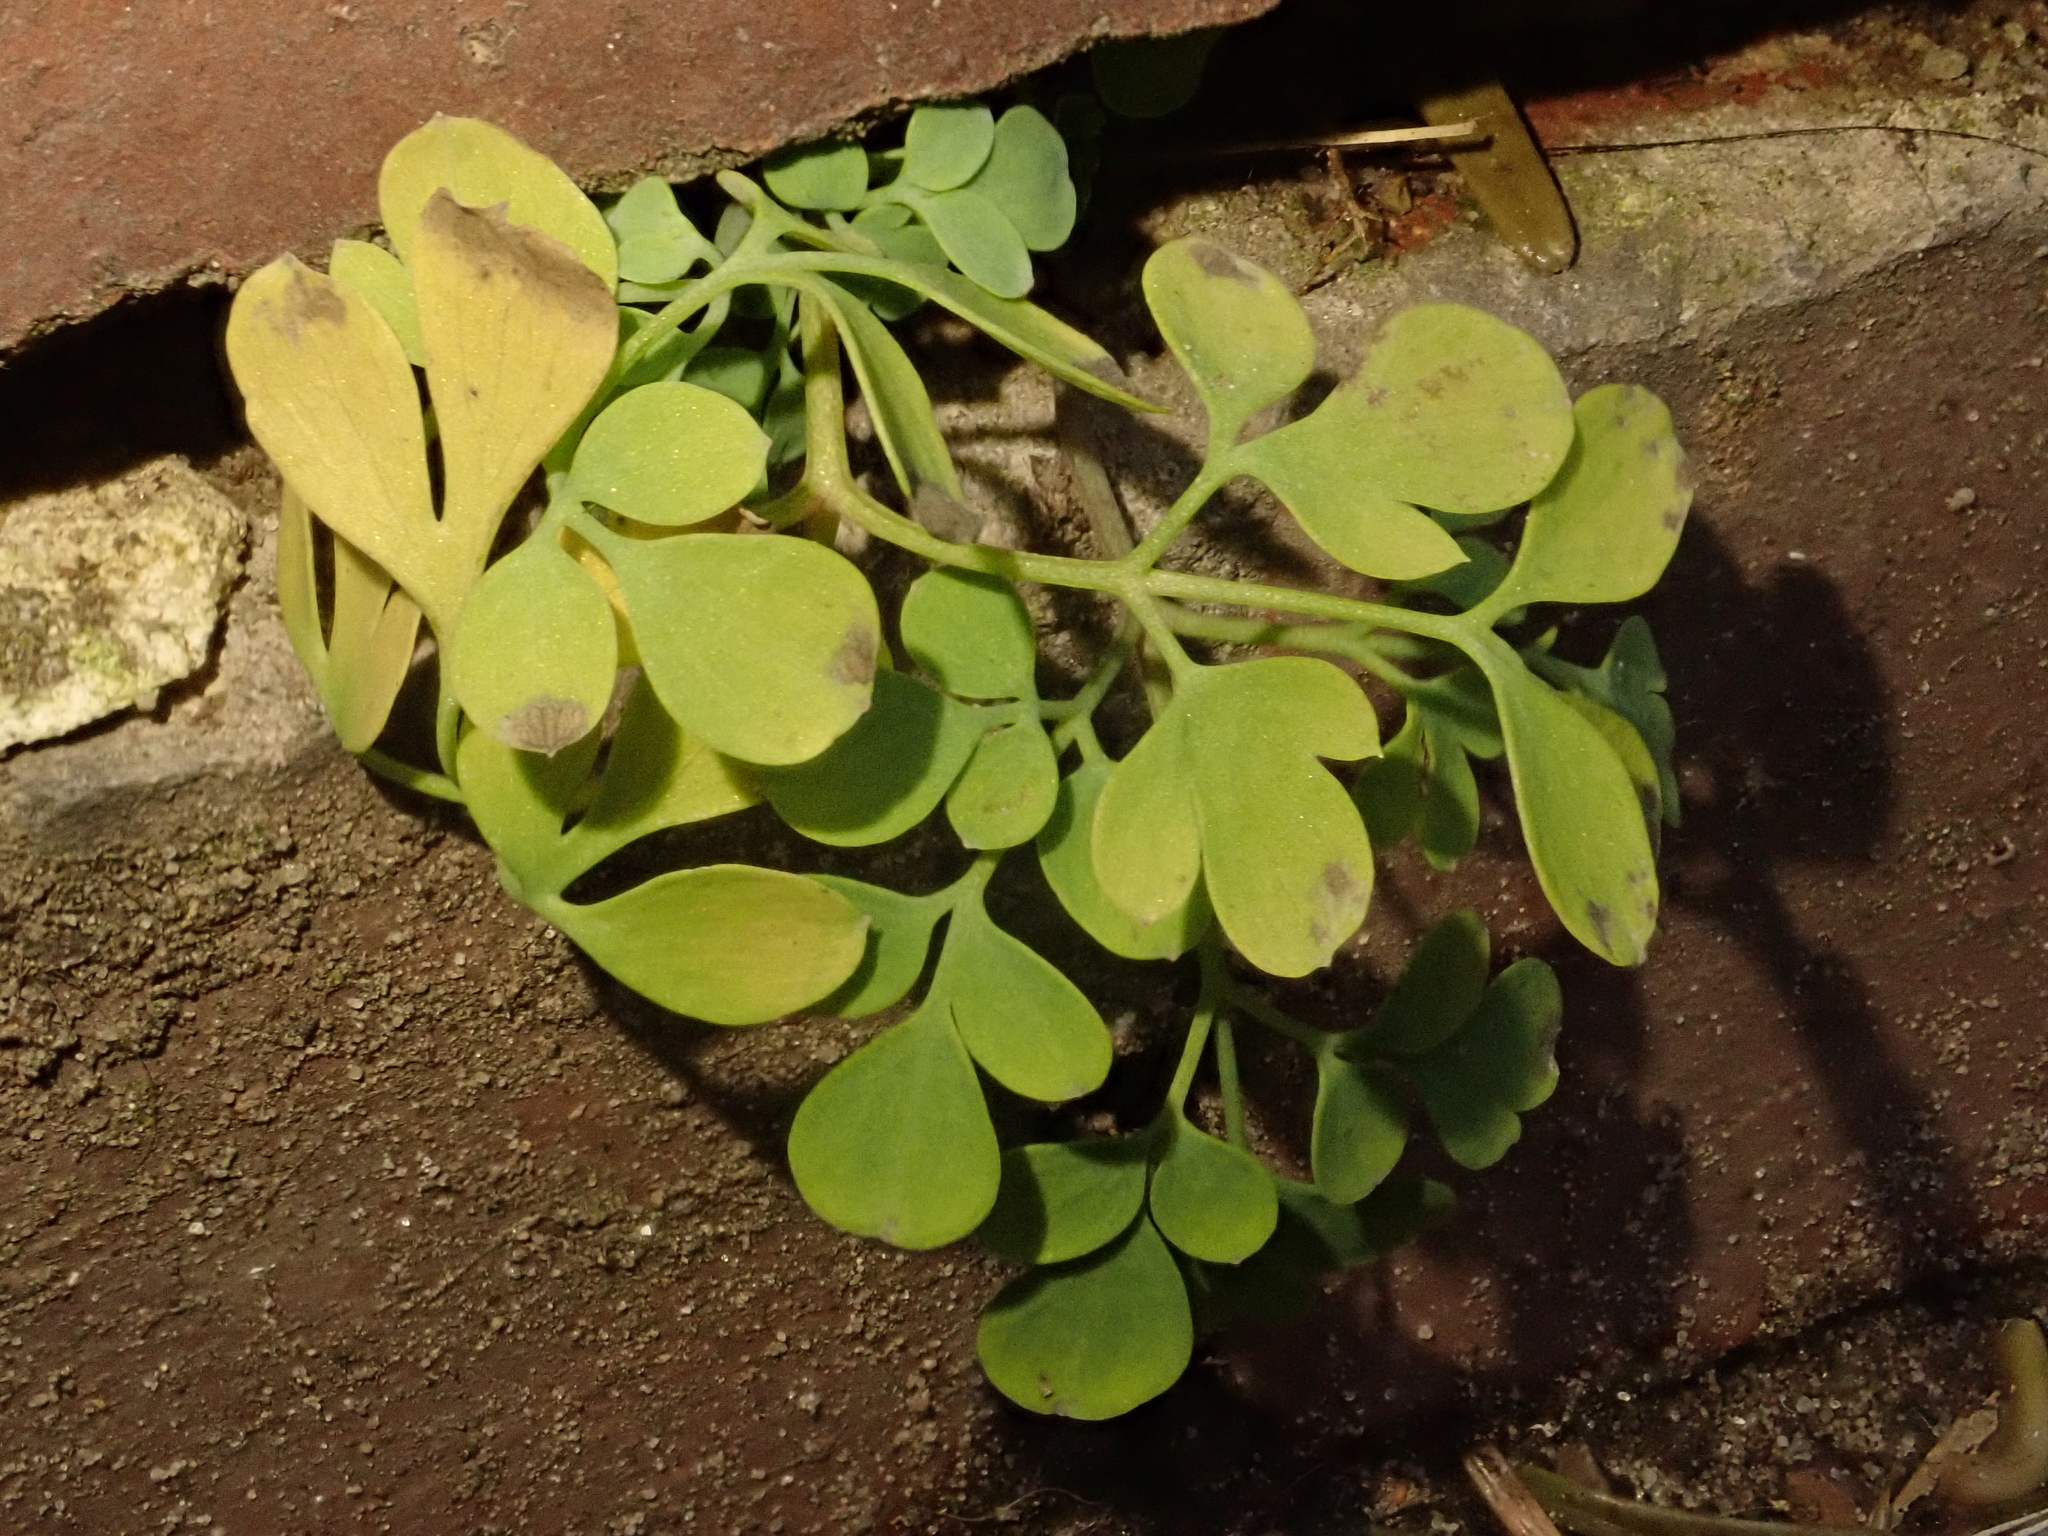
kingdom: Plantae
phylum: Tracheophyta
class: Magnoliopsida
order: Ranunculales
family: Papaveraceae
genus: Pseudofumaria
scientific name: Pseudofumaria lutea
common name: Yellow corydalis
